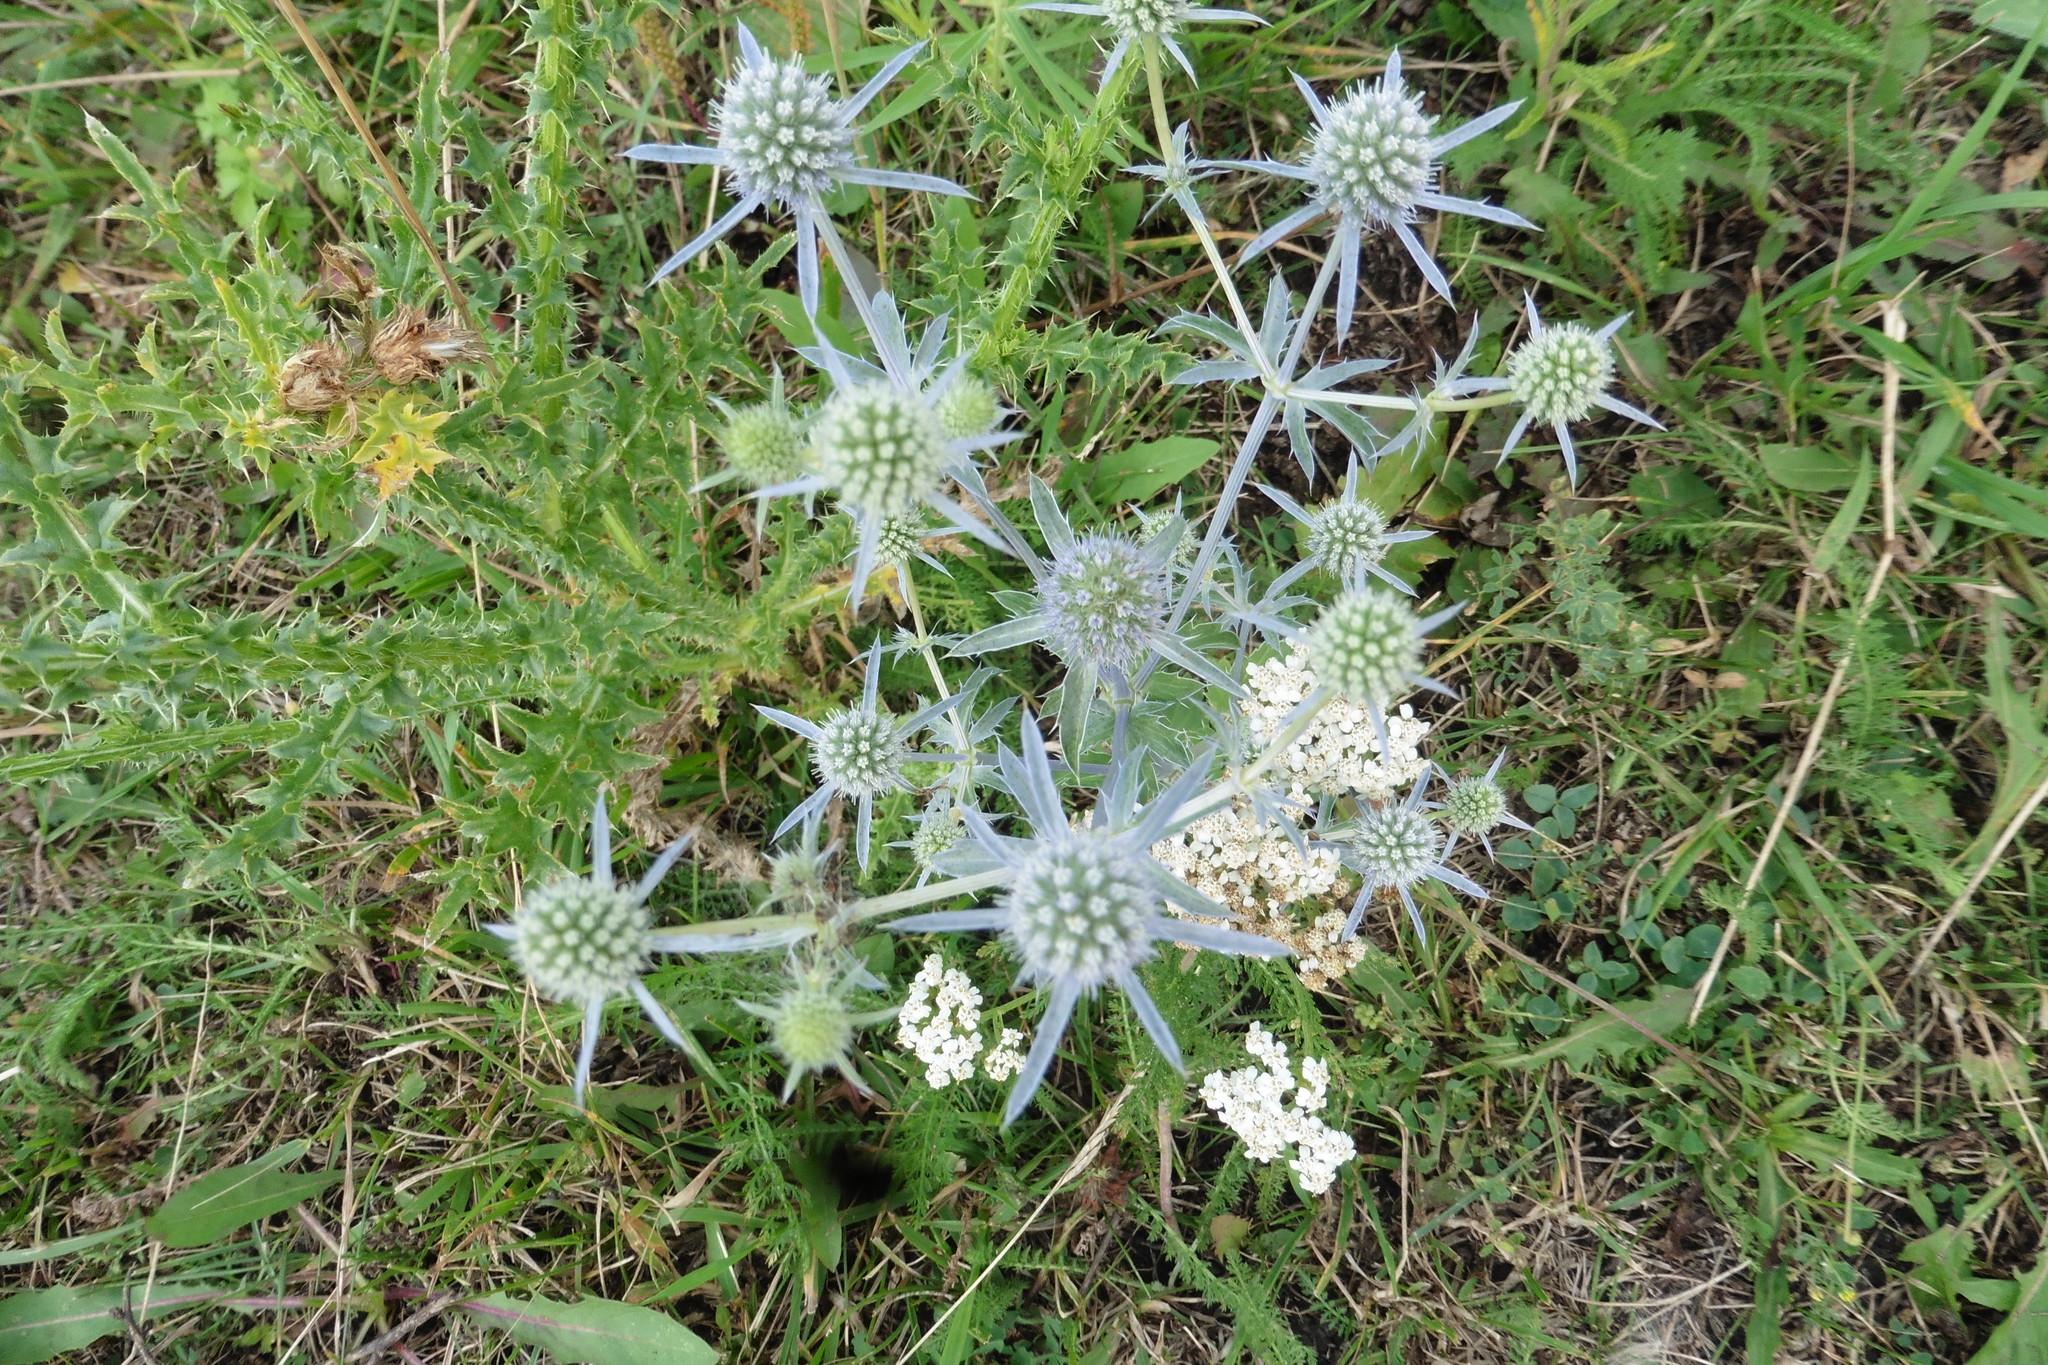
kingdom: Plantae
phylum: Tracheophyta
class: Magnoliopsida
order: Apiales
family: Apiaceae
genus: Eryngium
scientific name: Eryngium planum
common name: Blue eryngo
